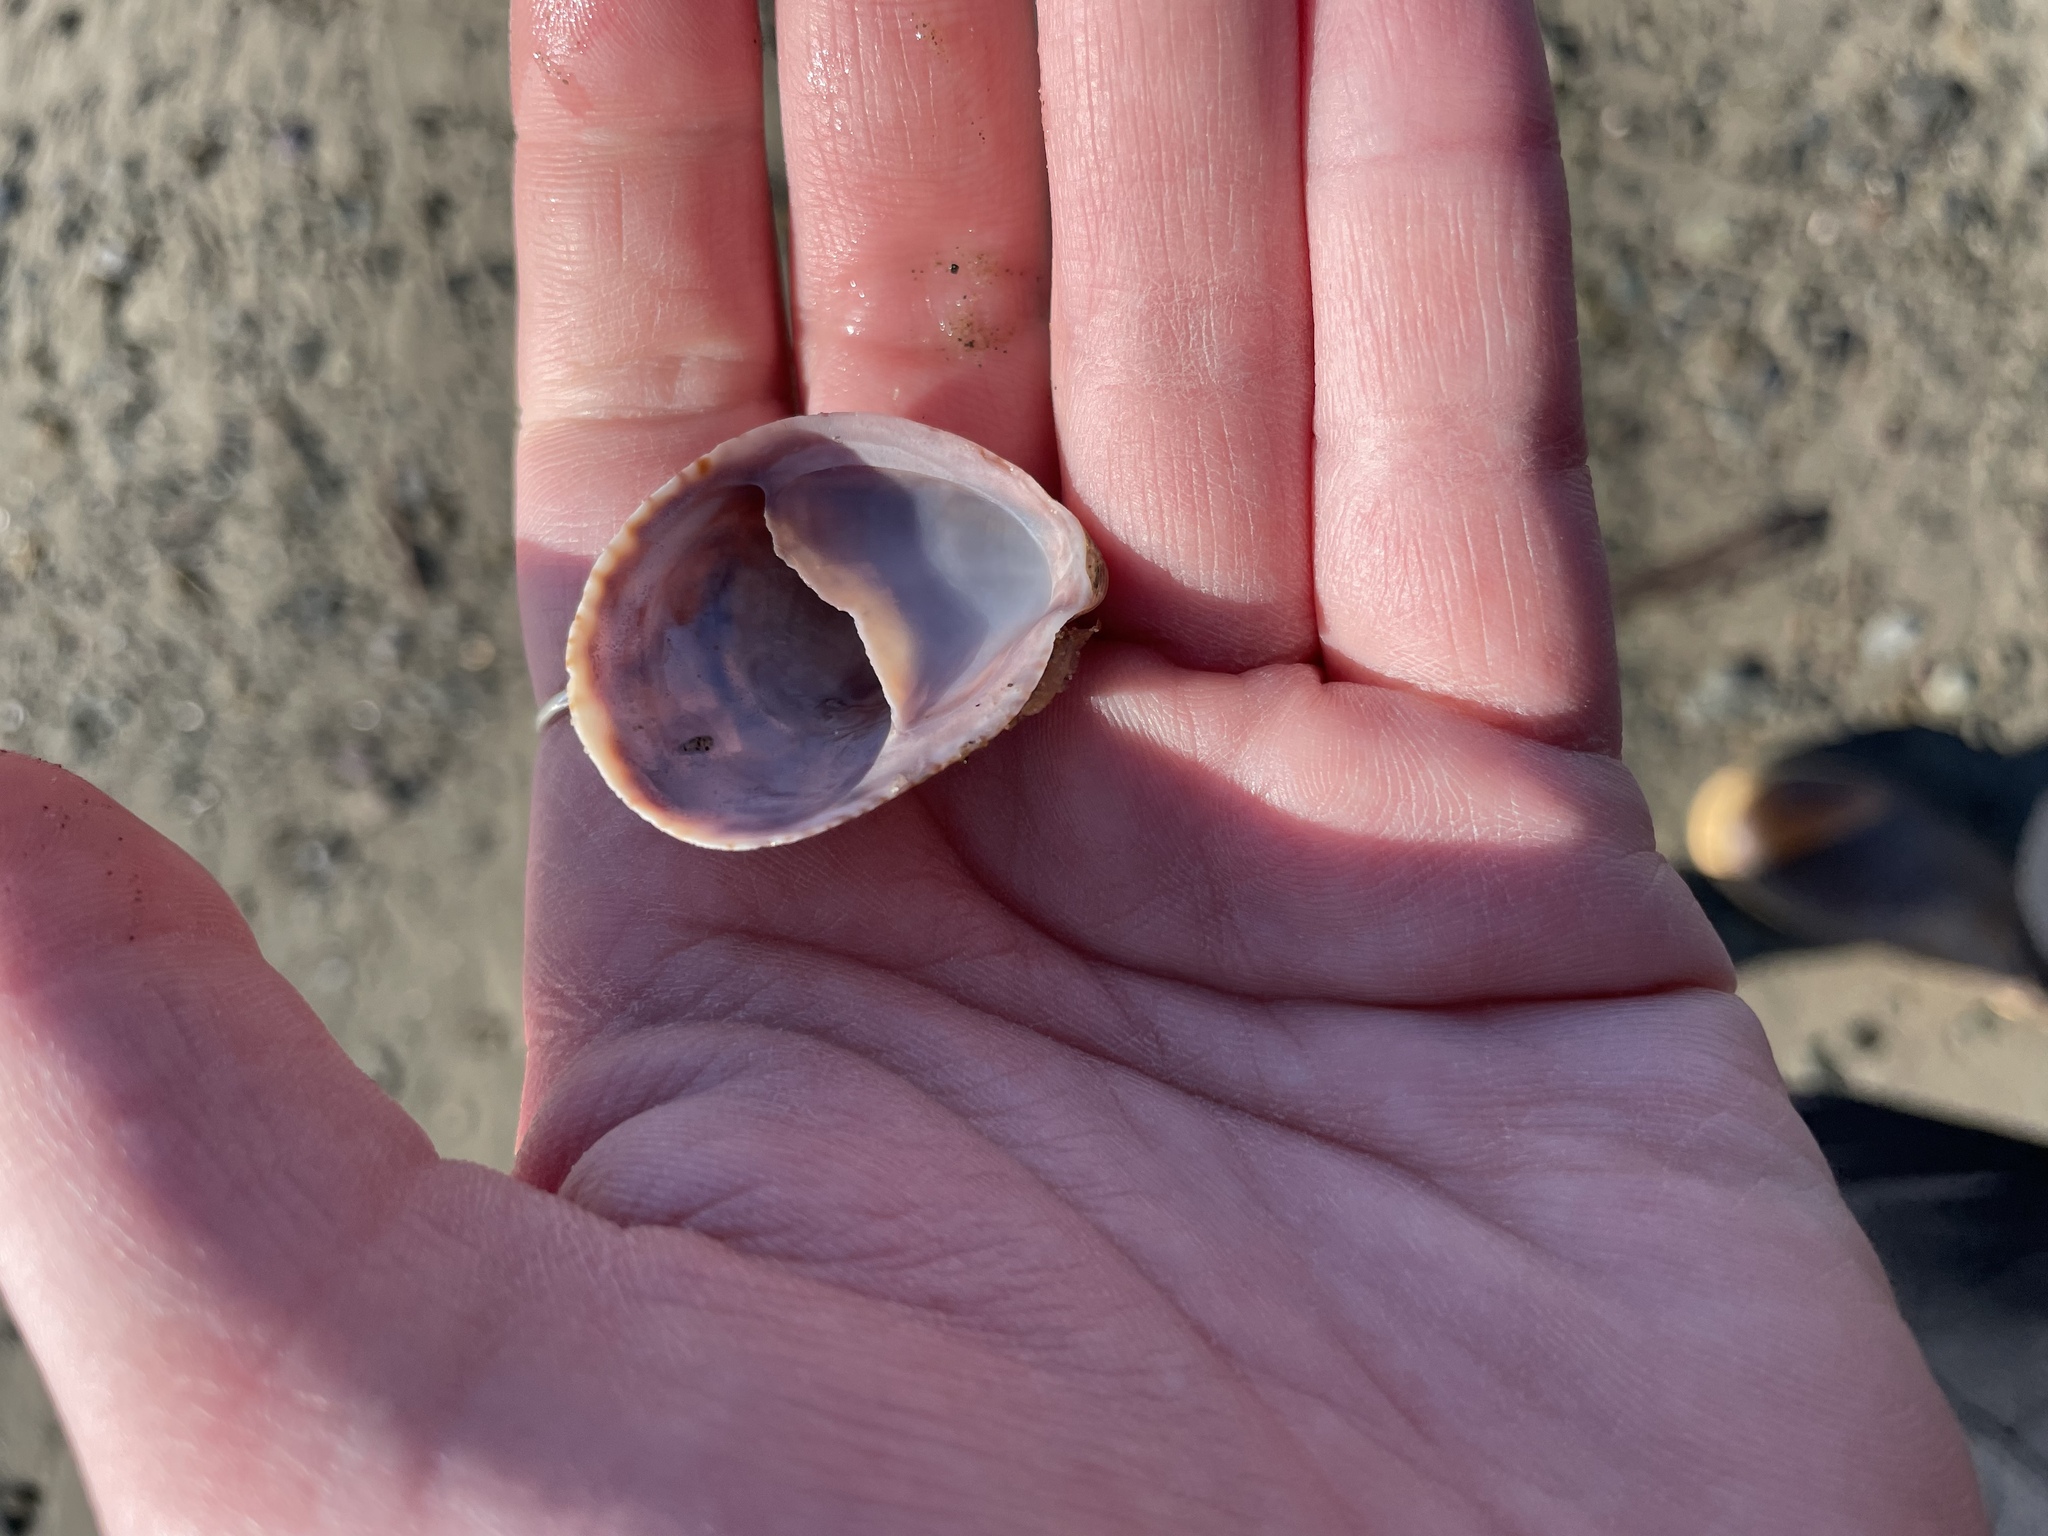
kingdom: Animalia
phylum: Mollusca
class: Gastropoda
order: Littorinimorpha
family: Calyptraeidae
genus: Crepidula
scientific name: Crepidula fornicata
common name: Slipper limpet
